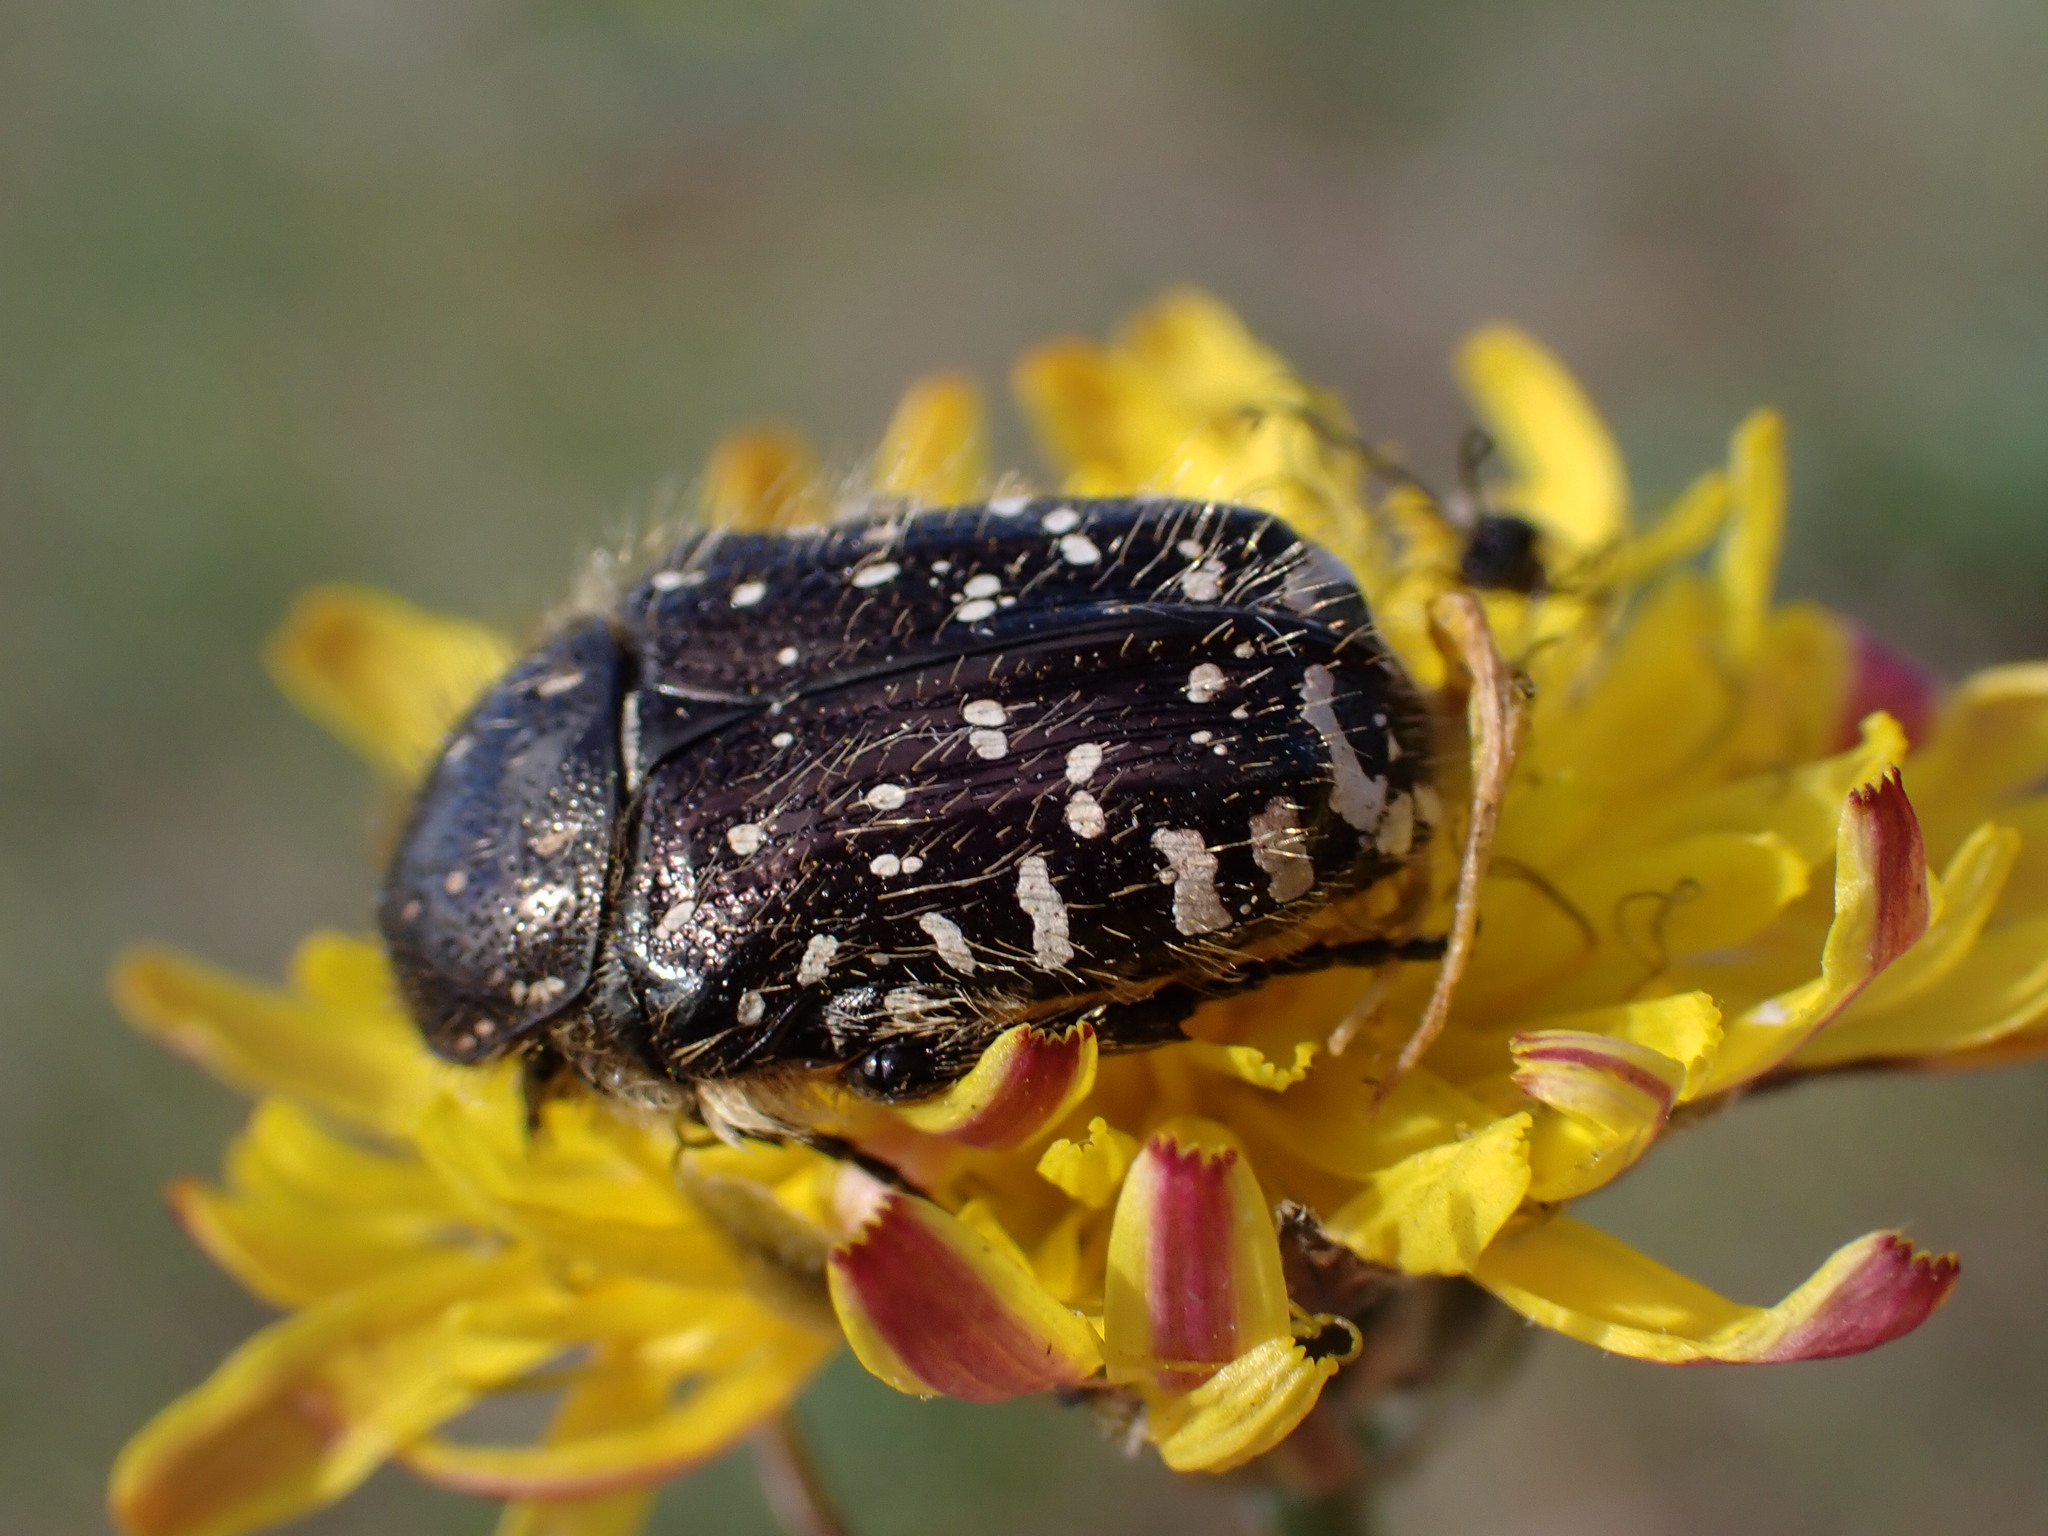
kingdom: Animalia
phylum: Arthropoda
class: Insecta
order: Coleoptera
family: Scarabaeidae
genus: Oxythyrea
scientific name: Oxythyrea funesta
